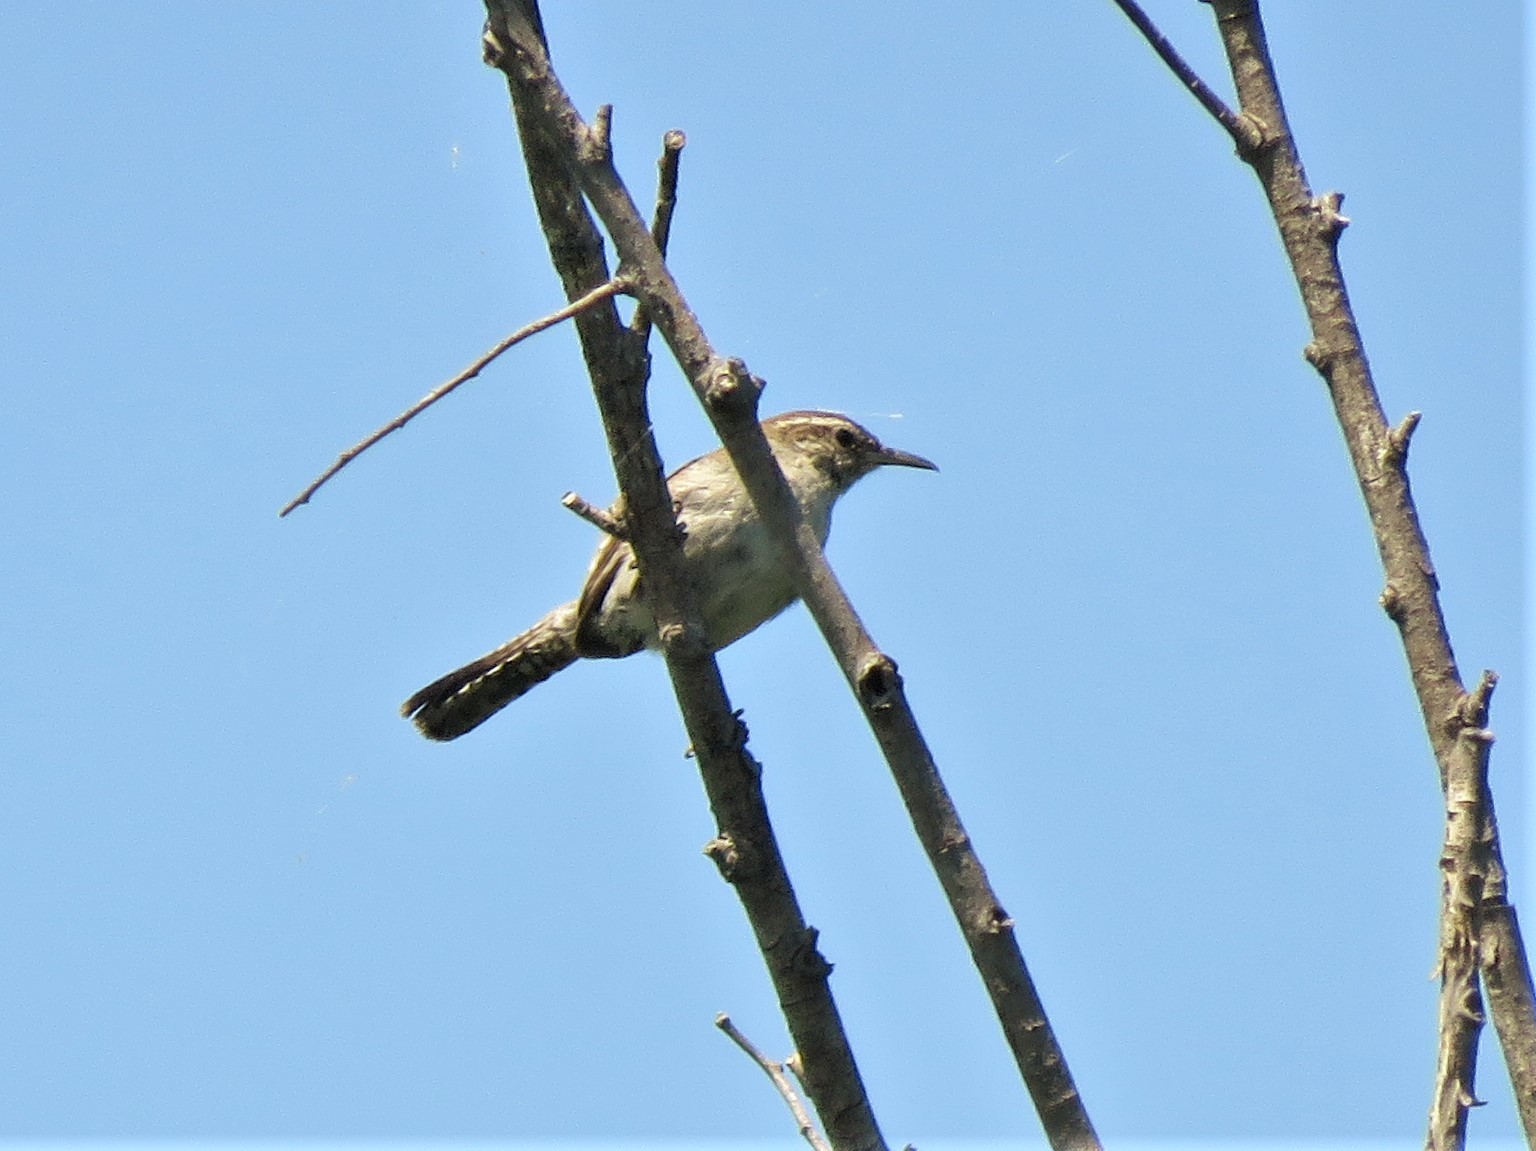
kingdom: Animalia
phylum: Chordata
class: Aves
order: Passeriformes
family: Troglodytidae
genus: Thryomanes
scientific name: Thryomanes bewickii
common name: Bewick's wren
